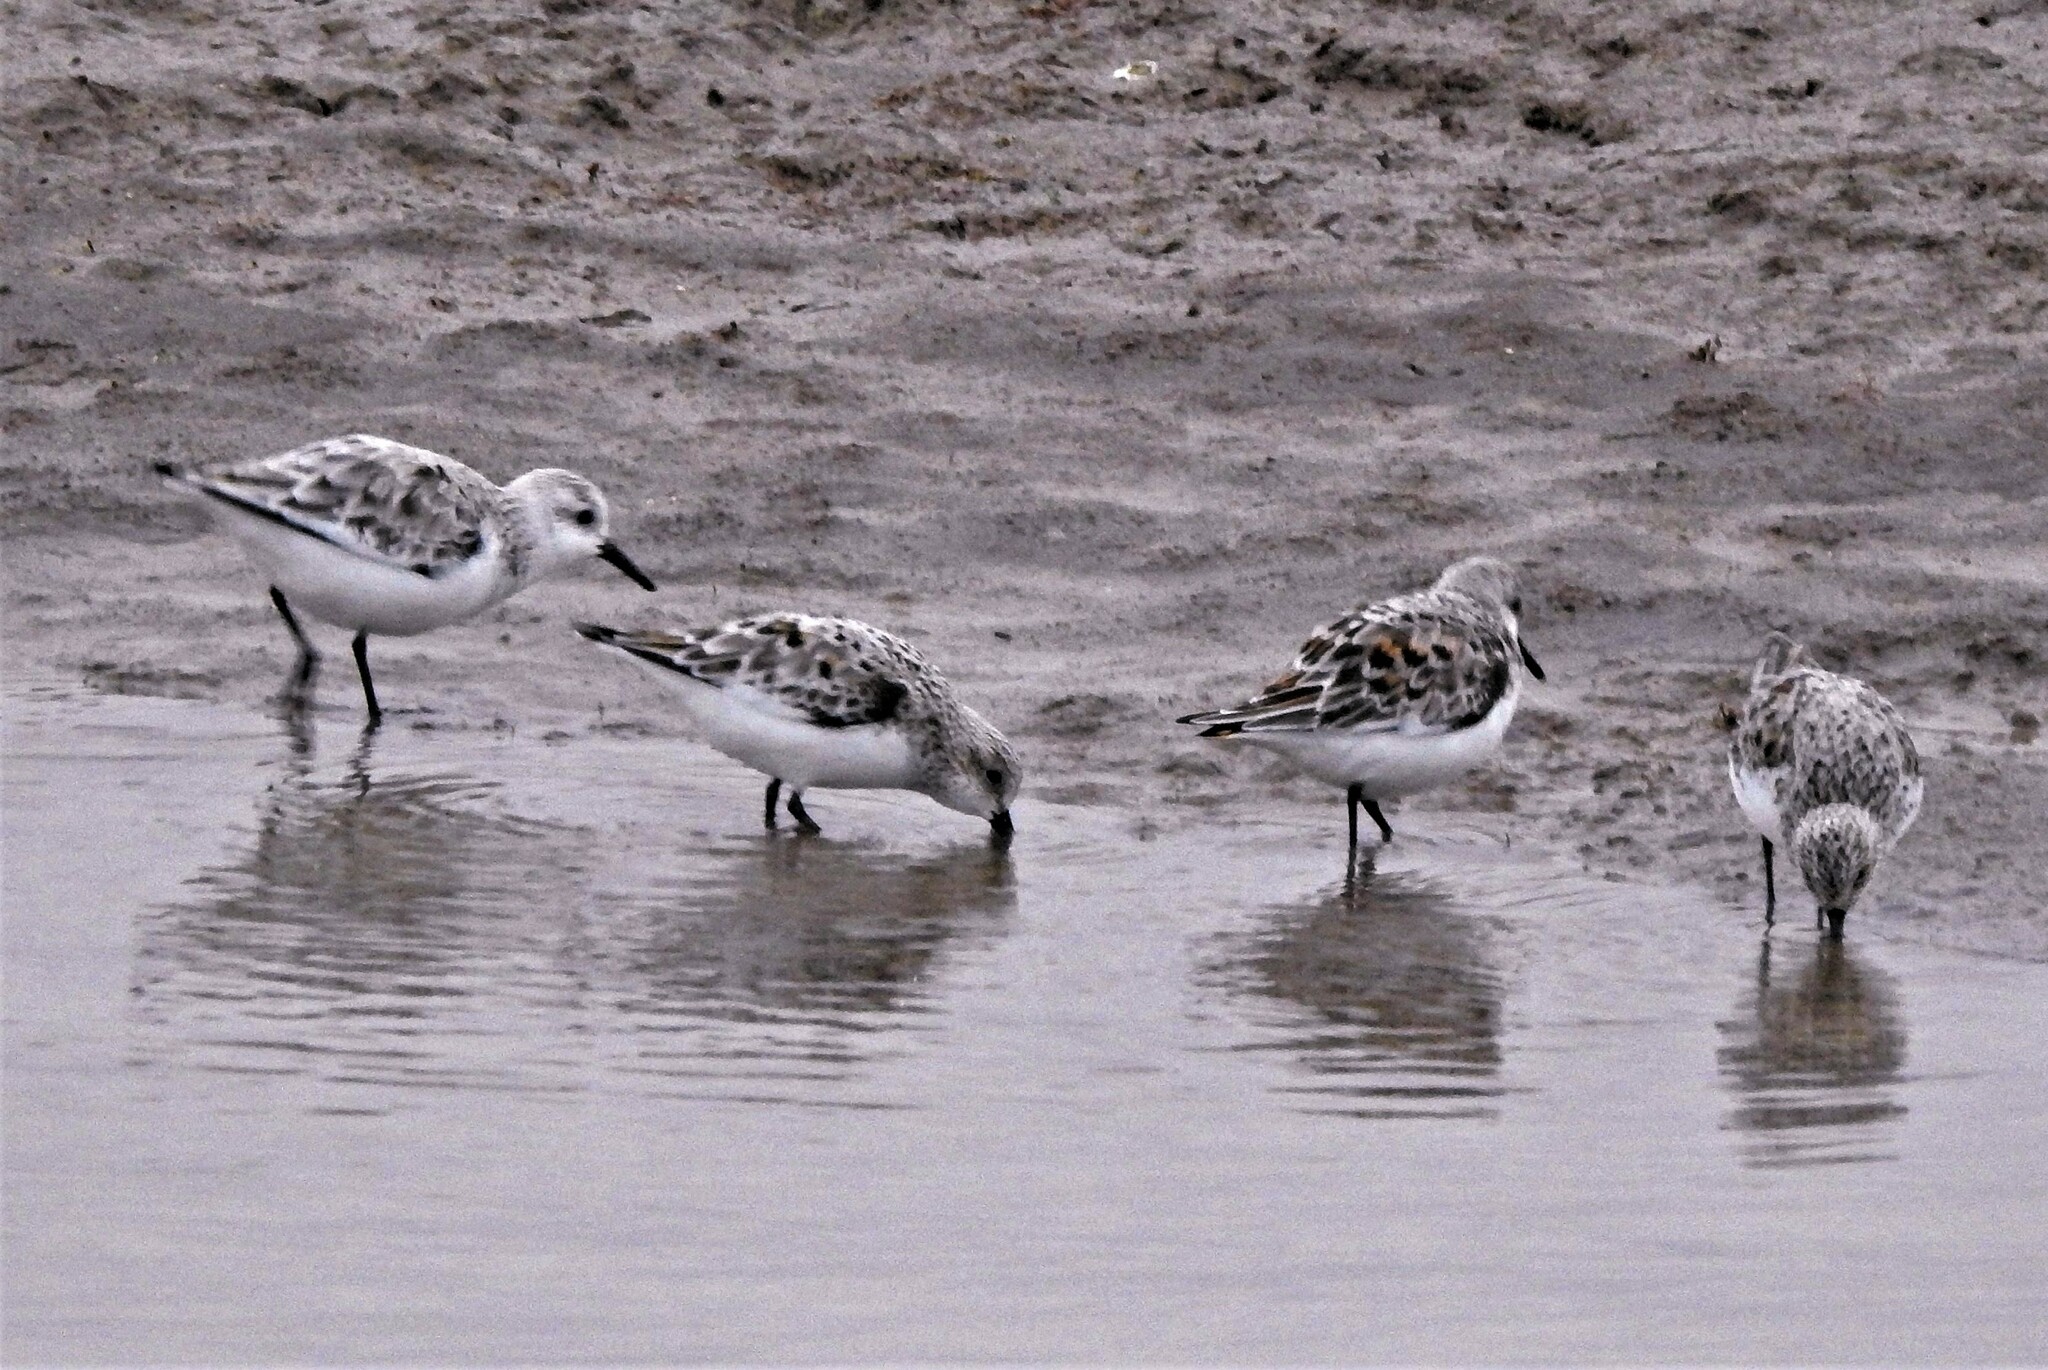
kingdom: Animalia
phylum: Chordata
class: Aves
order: Charadriiformes
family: Scolopacidae
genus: Calidris
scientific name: Calidris alba
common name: Sanderling
